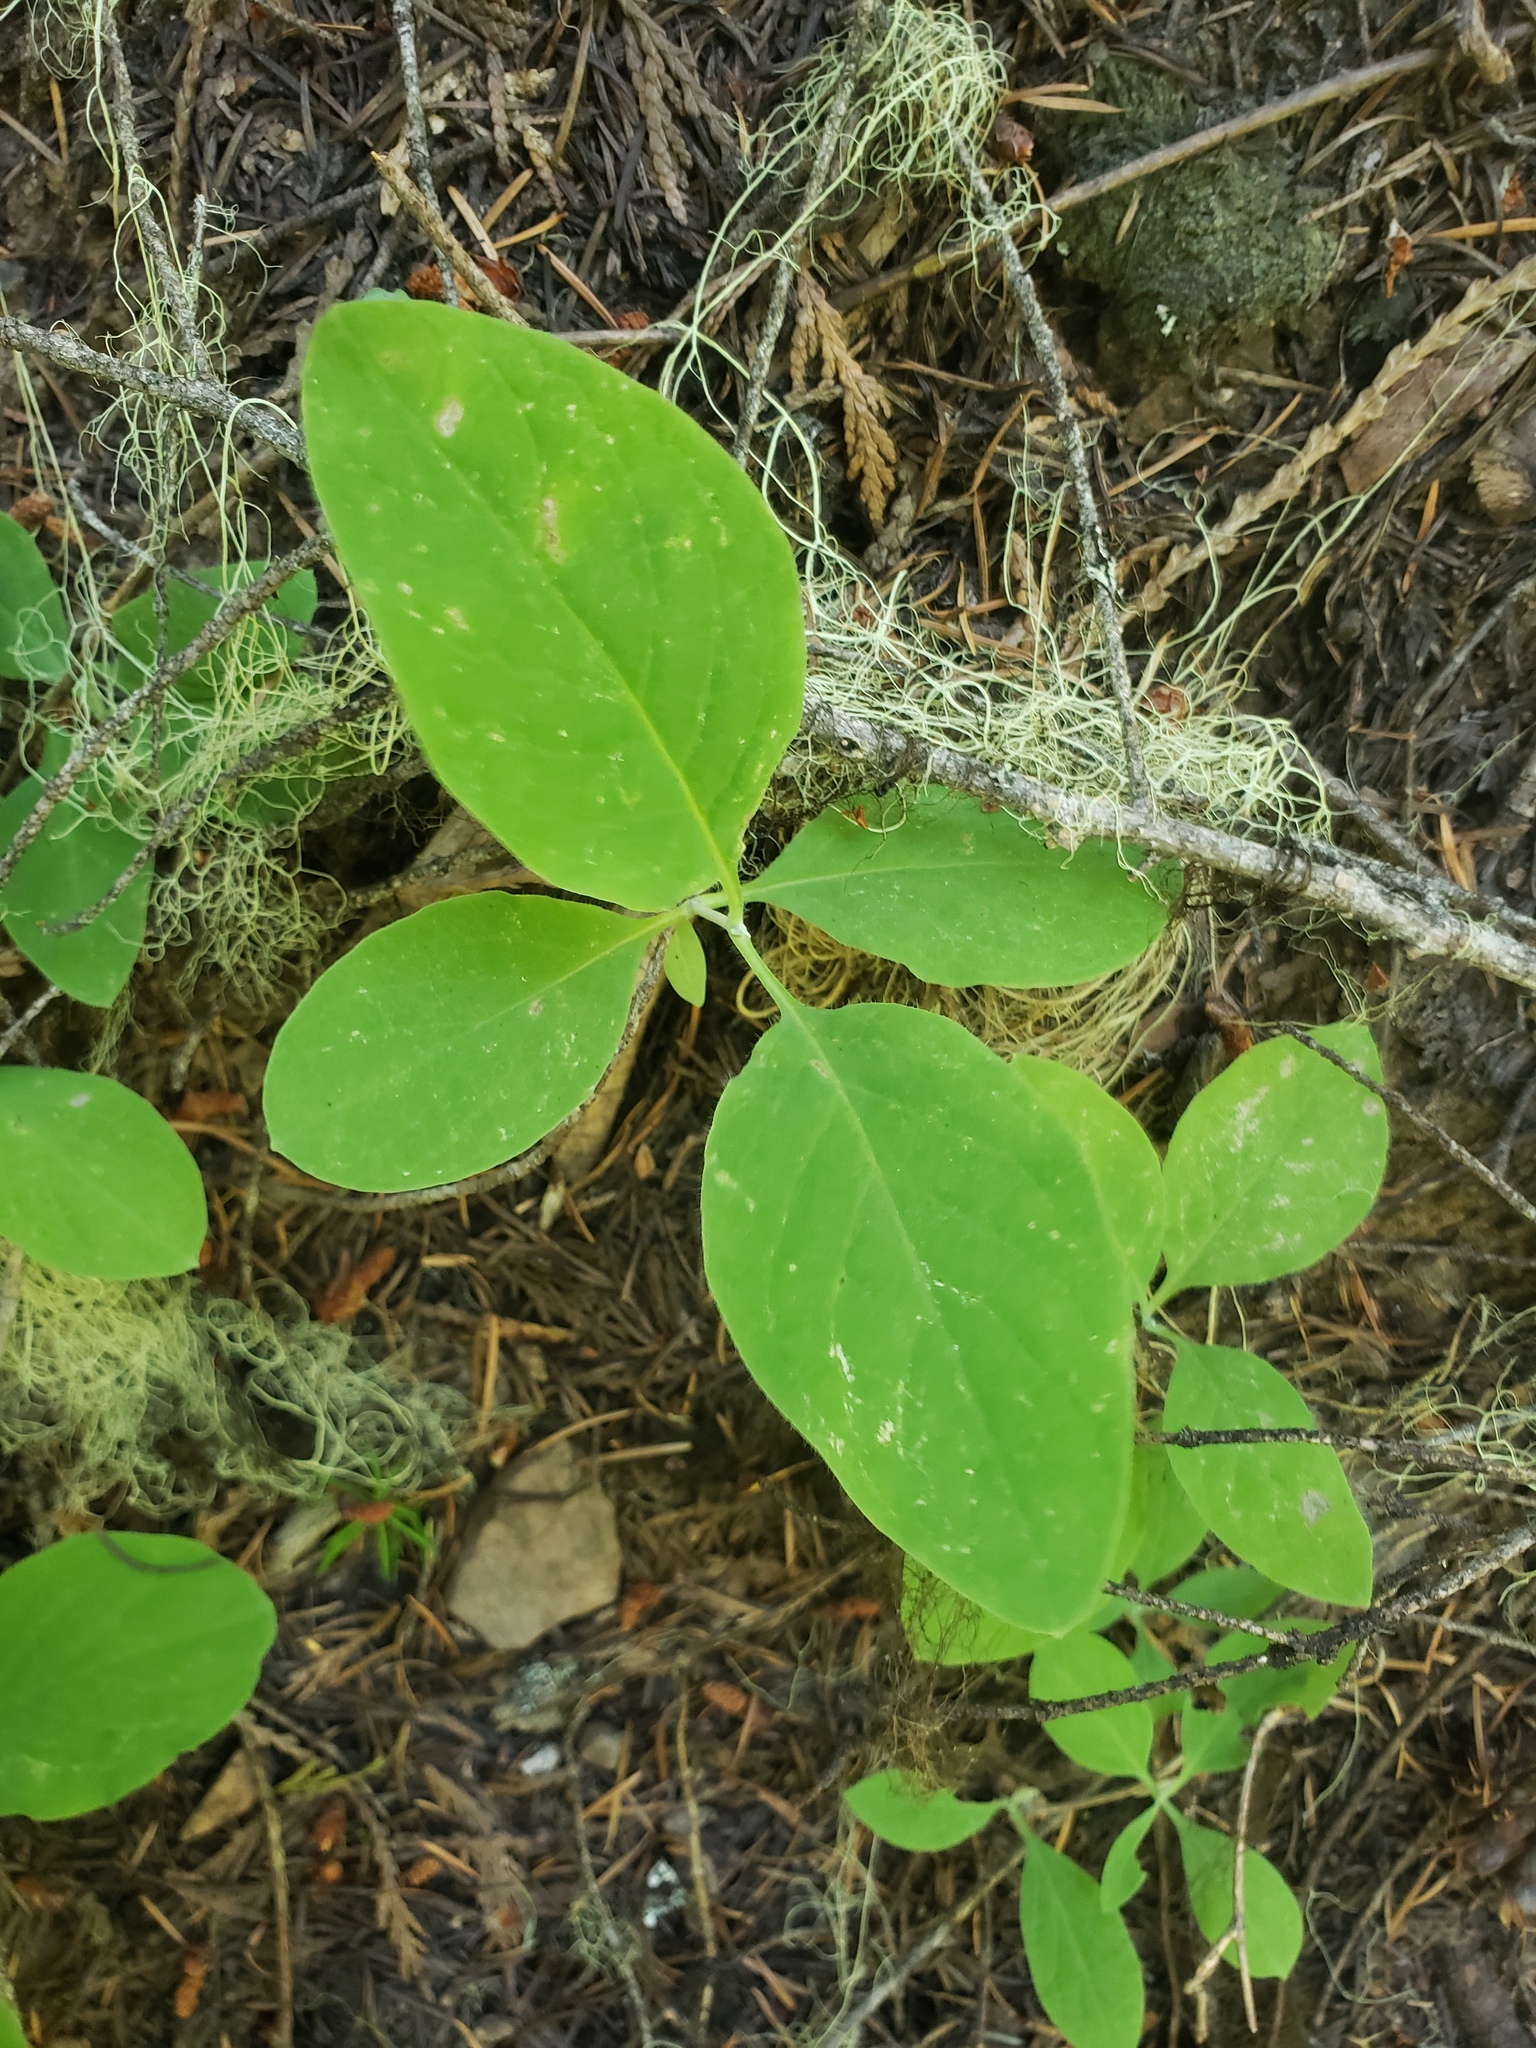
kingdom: Plantae
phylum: Tracheophyta
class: Magnoliopsida
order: Dipsacales
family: Caprifoliaceae
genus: Lonicera
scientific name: Lonicera ciliosa
